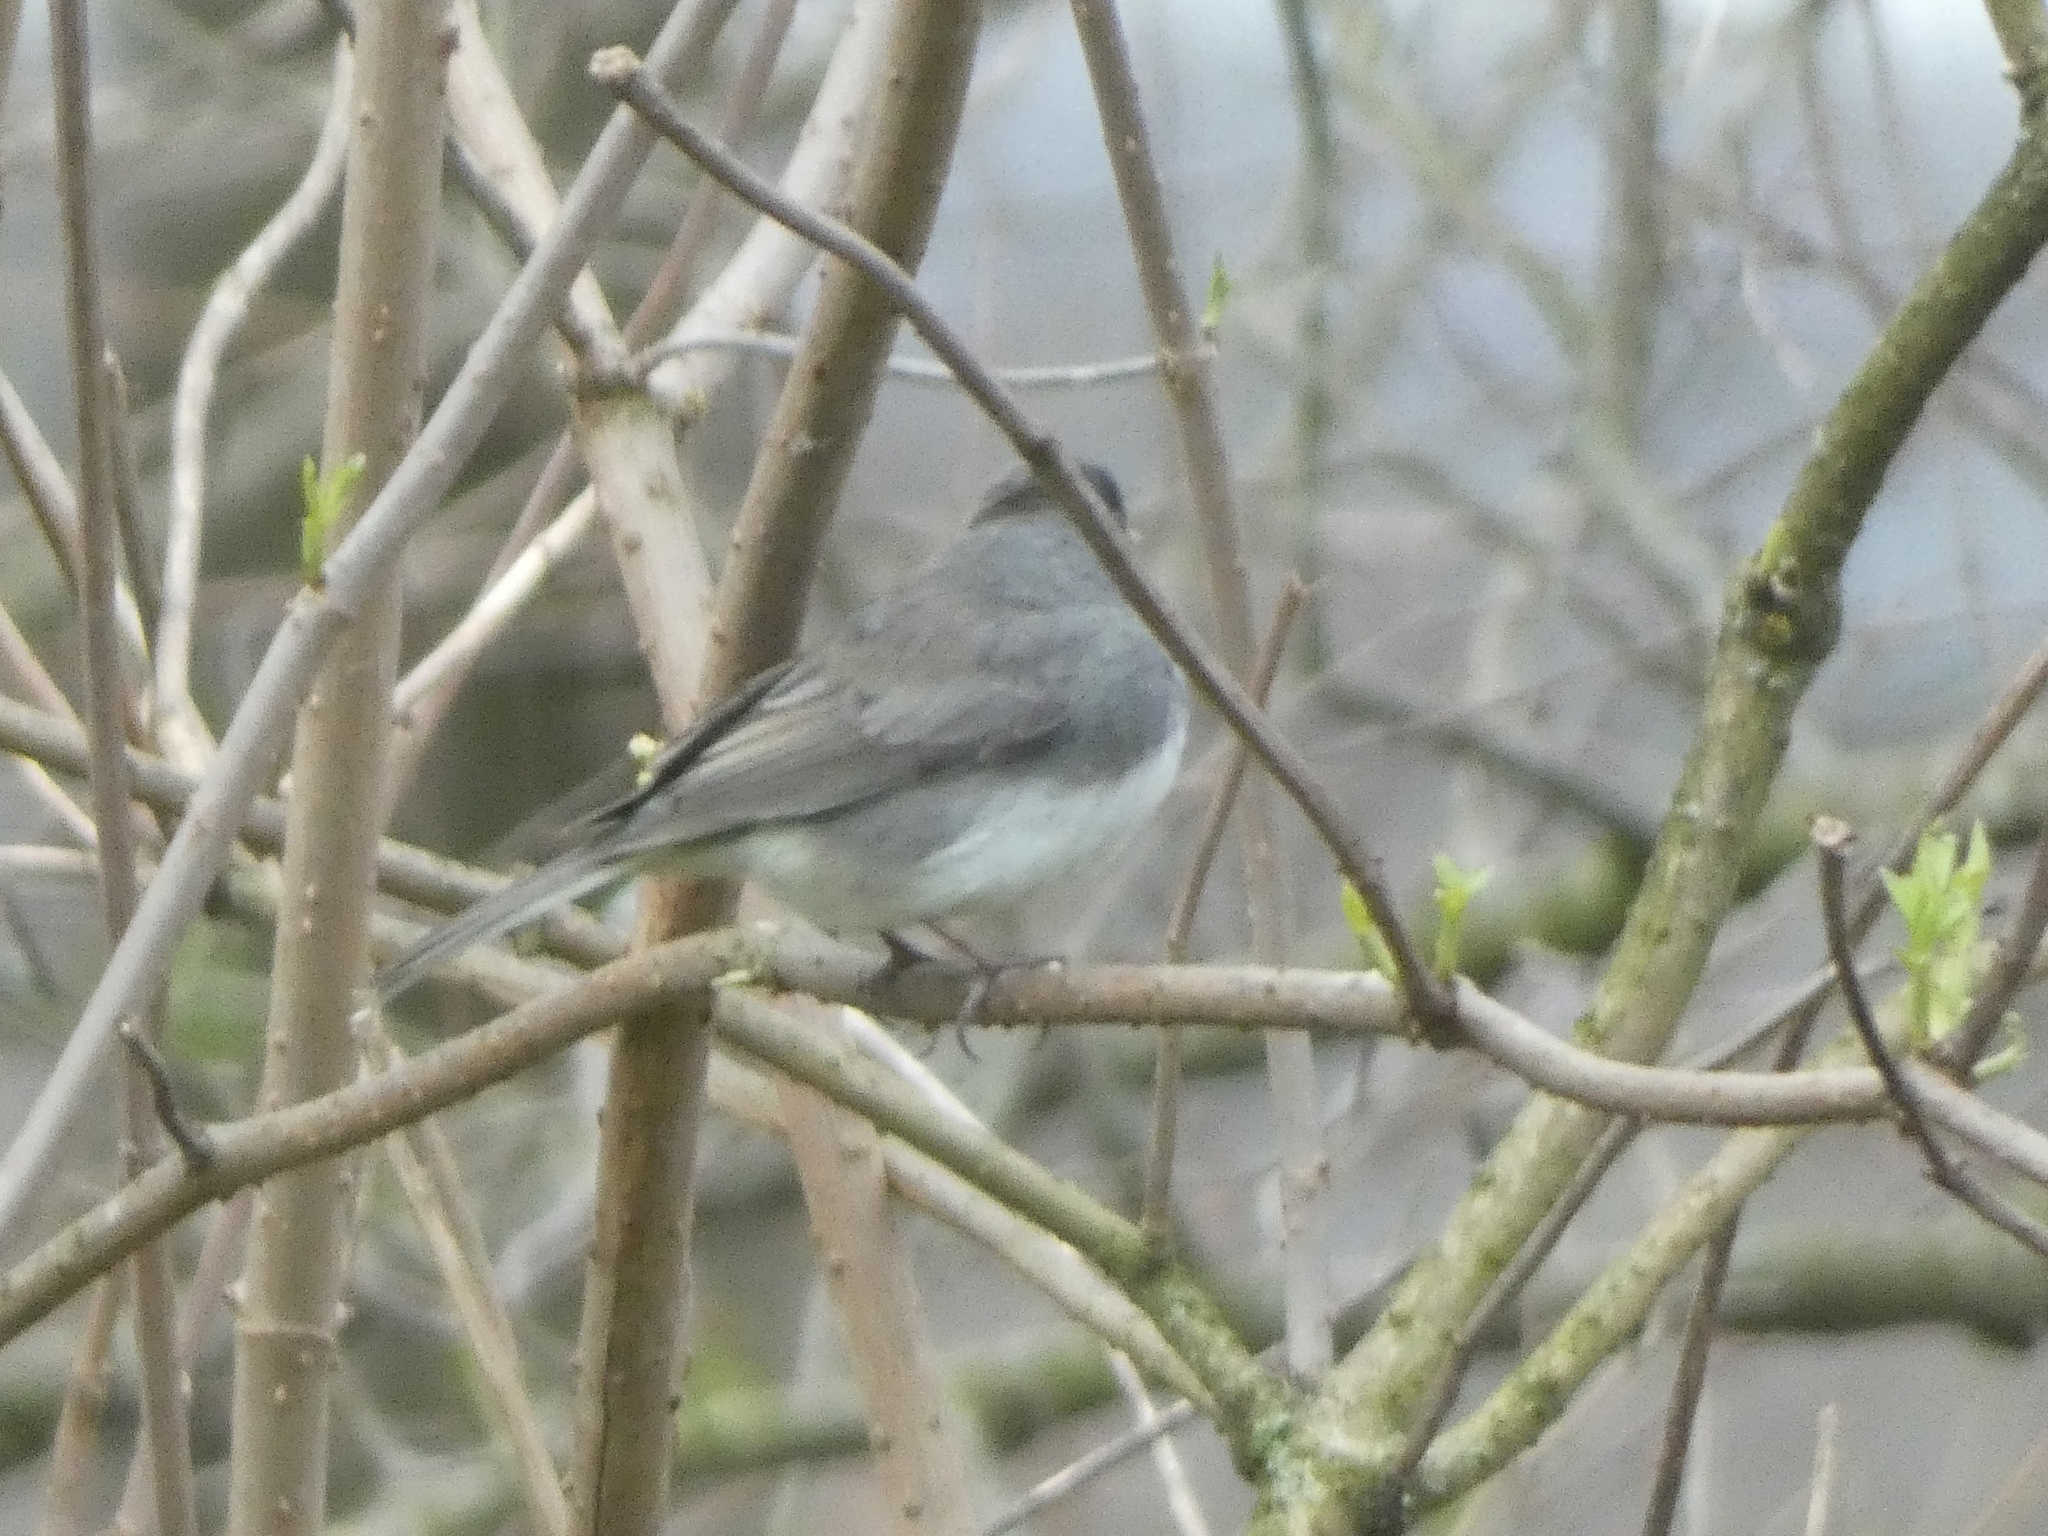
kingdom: Animalia
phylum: Chordata
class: Aves
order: Passeriformes
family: Passerellidae
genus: Junco
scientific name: Junco hyemalis
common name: Dark-eyed junco
